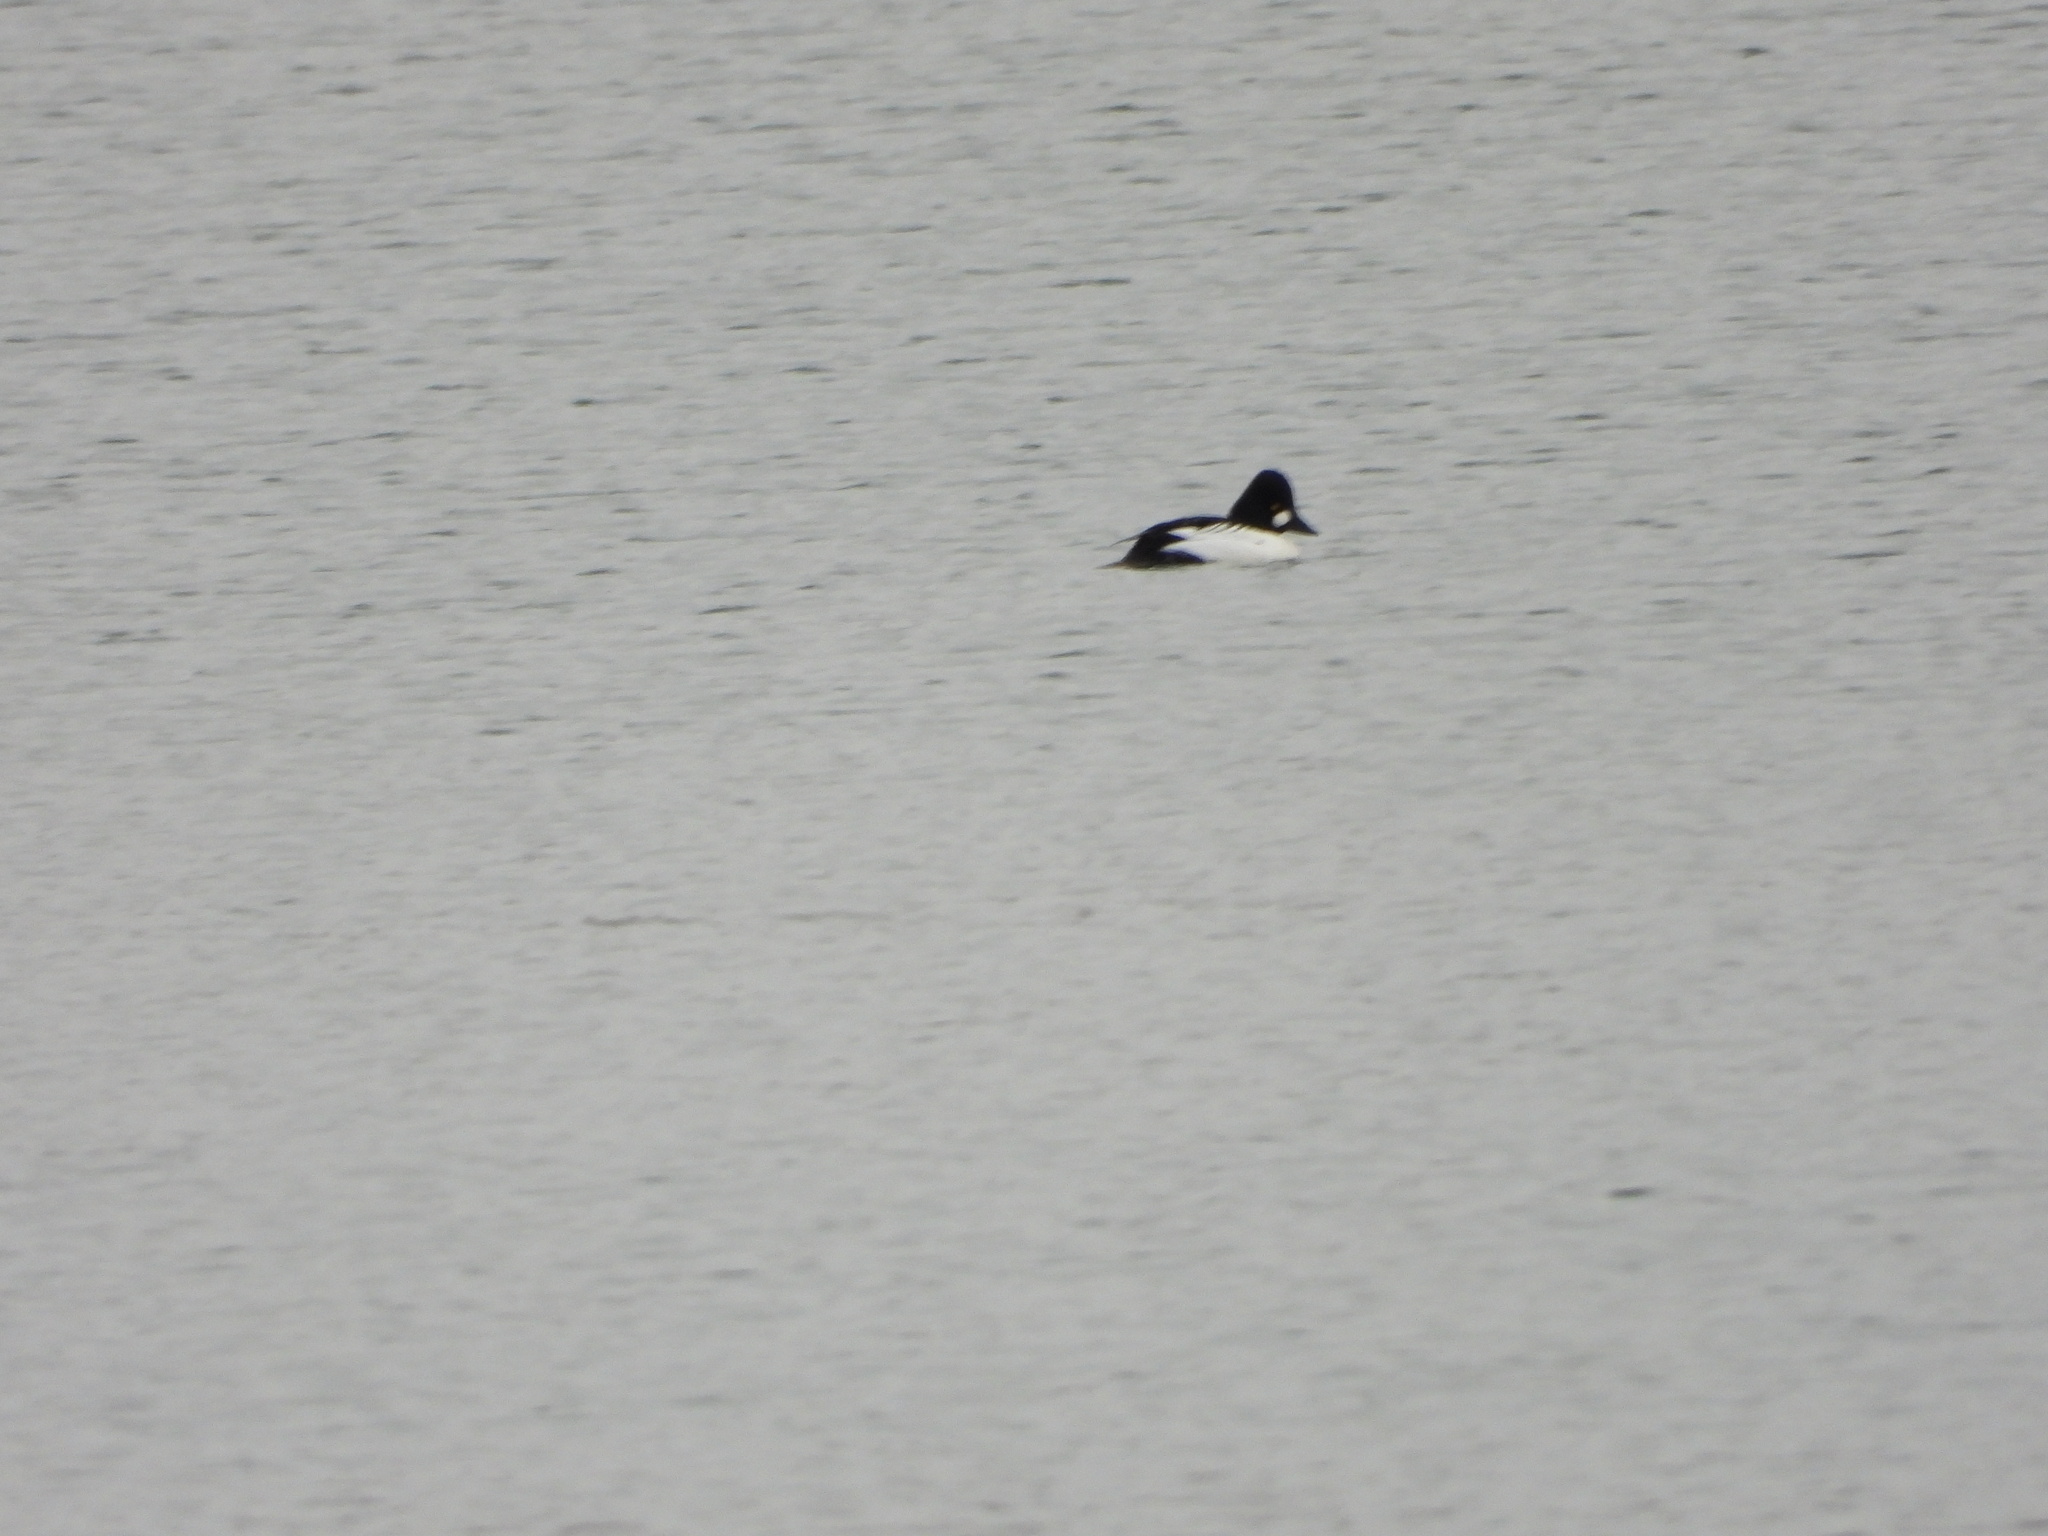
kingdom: Animalia
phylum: Chordata
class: Aves
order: Anseriformes
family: Anatidae
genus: Bucephala
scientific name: Bucephala clangula
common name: Common goldeneye
